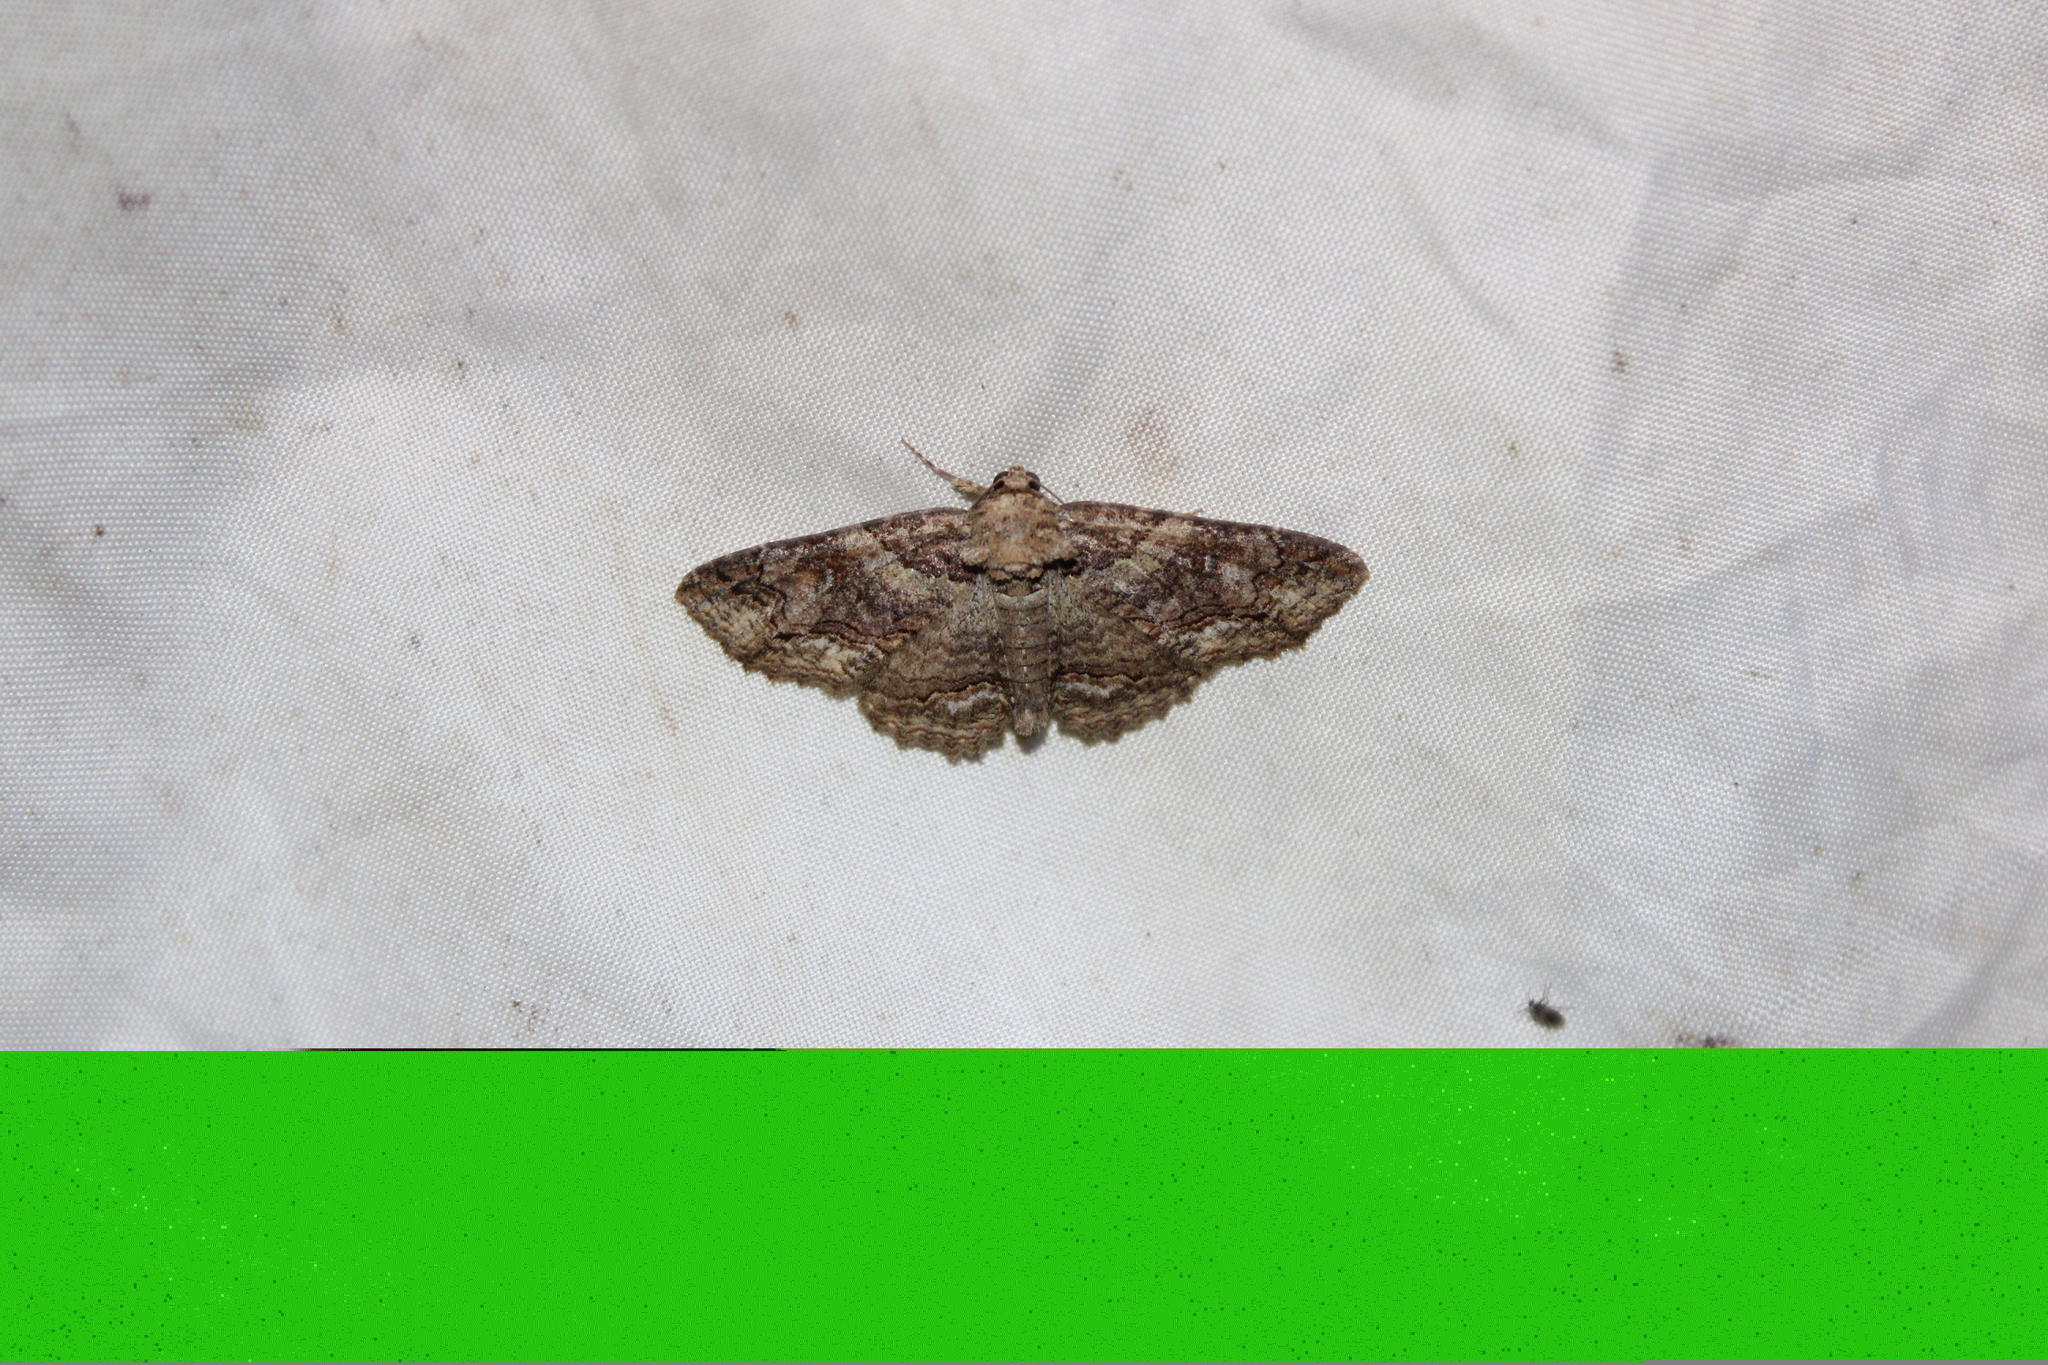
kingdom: Animalia
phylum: Arthropoda
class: Insecta
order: Lepidoptera
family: Erebidae
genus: Zale
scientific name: Zale galbanata
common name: Maple zale
